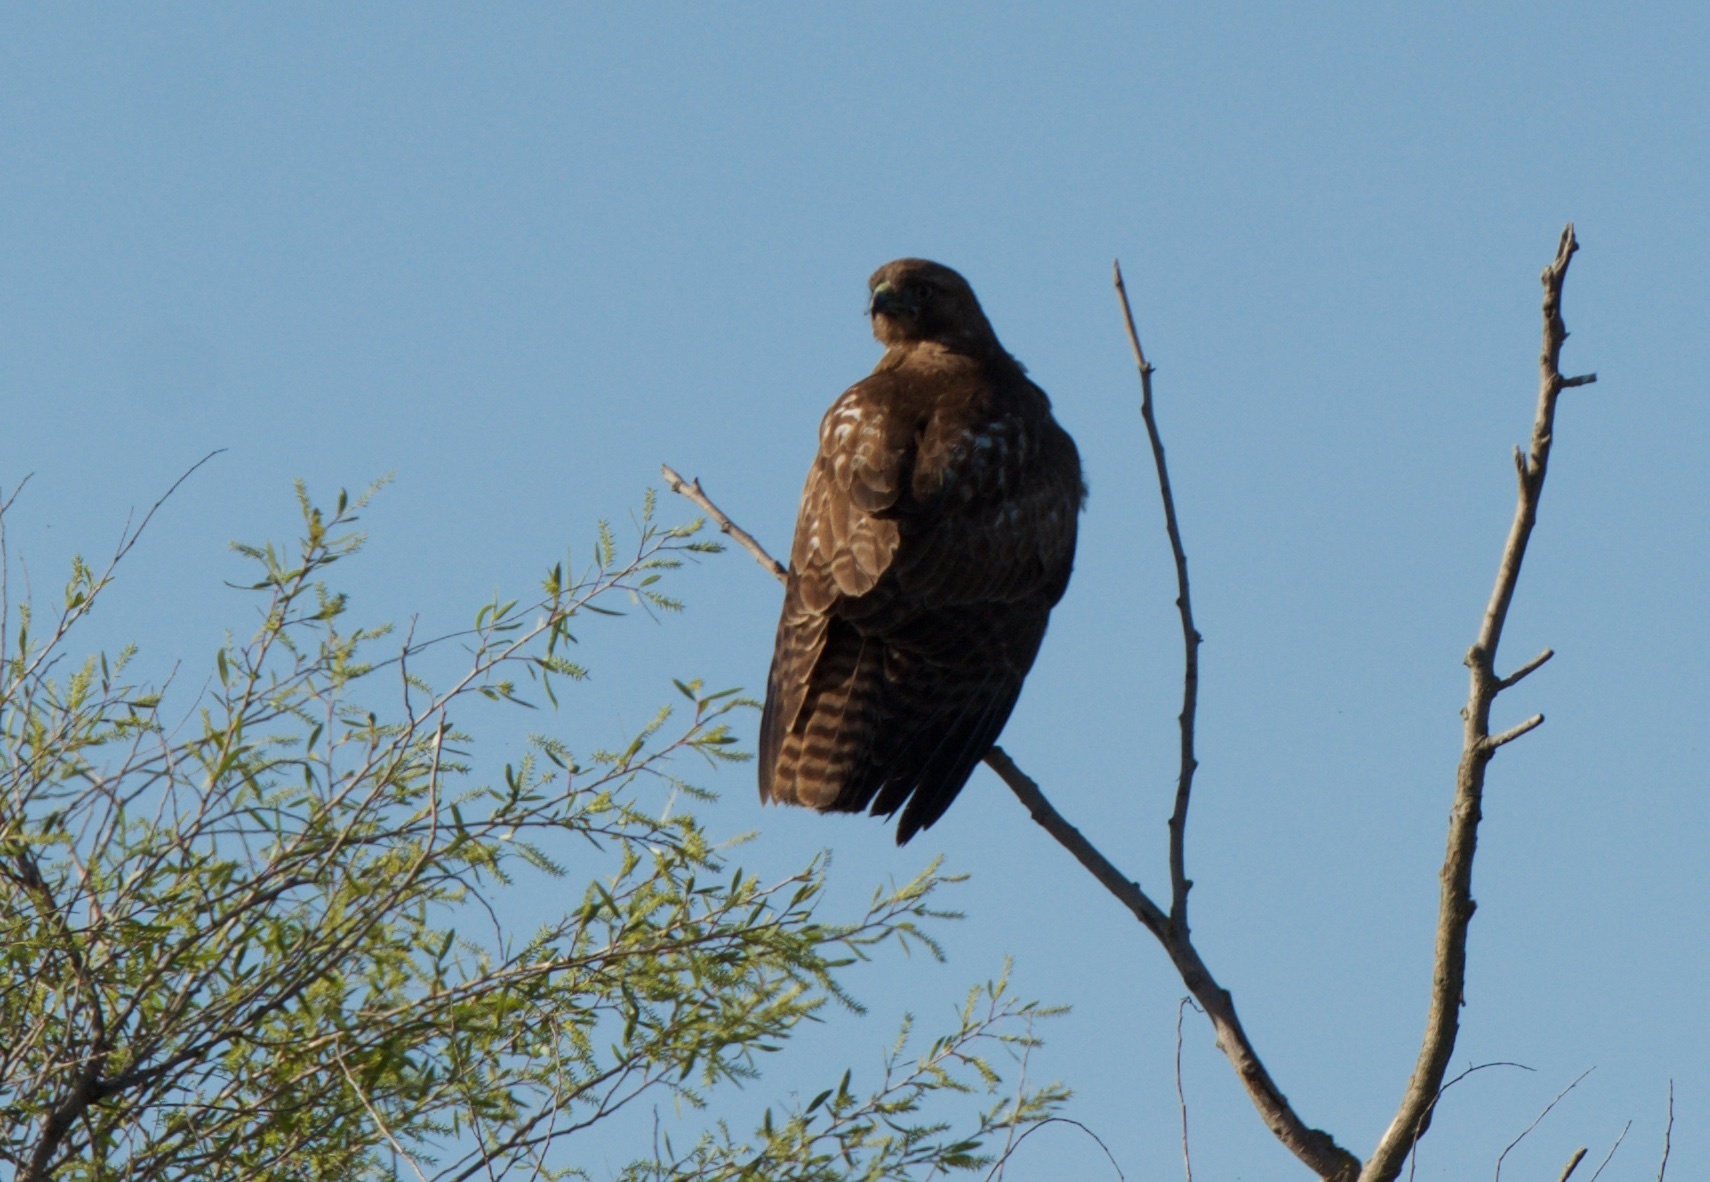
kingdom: Animalia
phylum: Chordata
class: Aves
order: Accipitriformes
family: Accipitridae
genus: Buteo
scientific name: Buteo jamaicensis
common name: Red-tailed hawk
